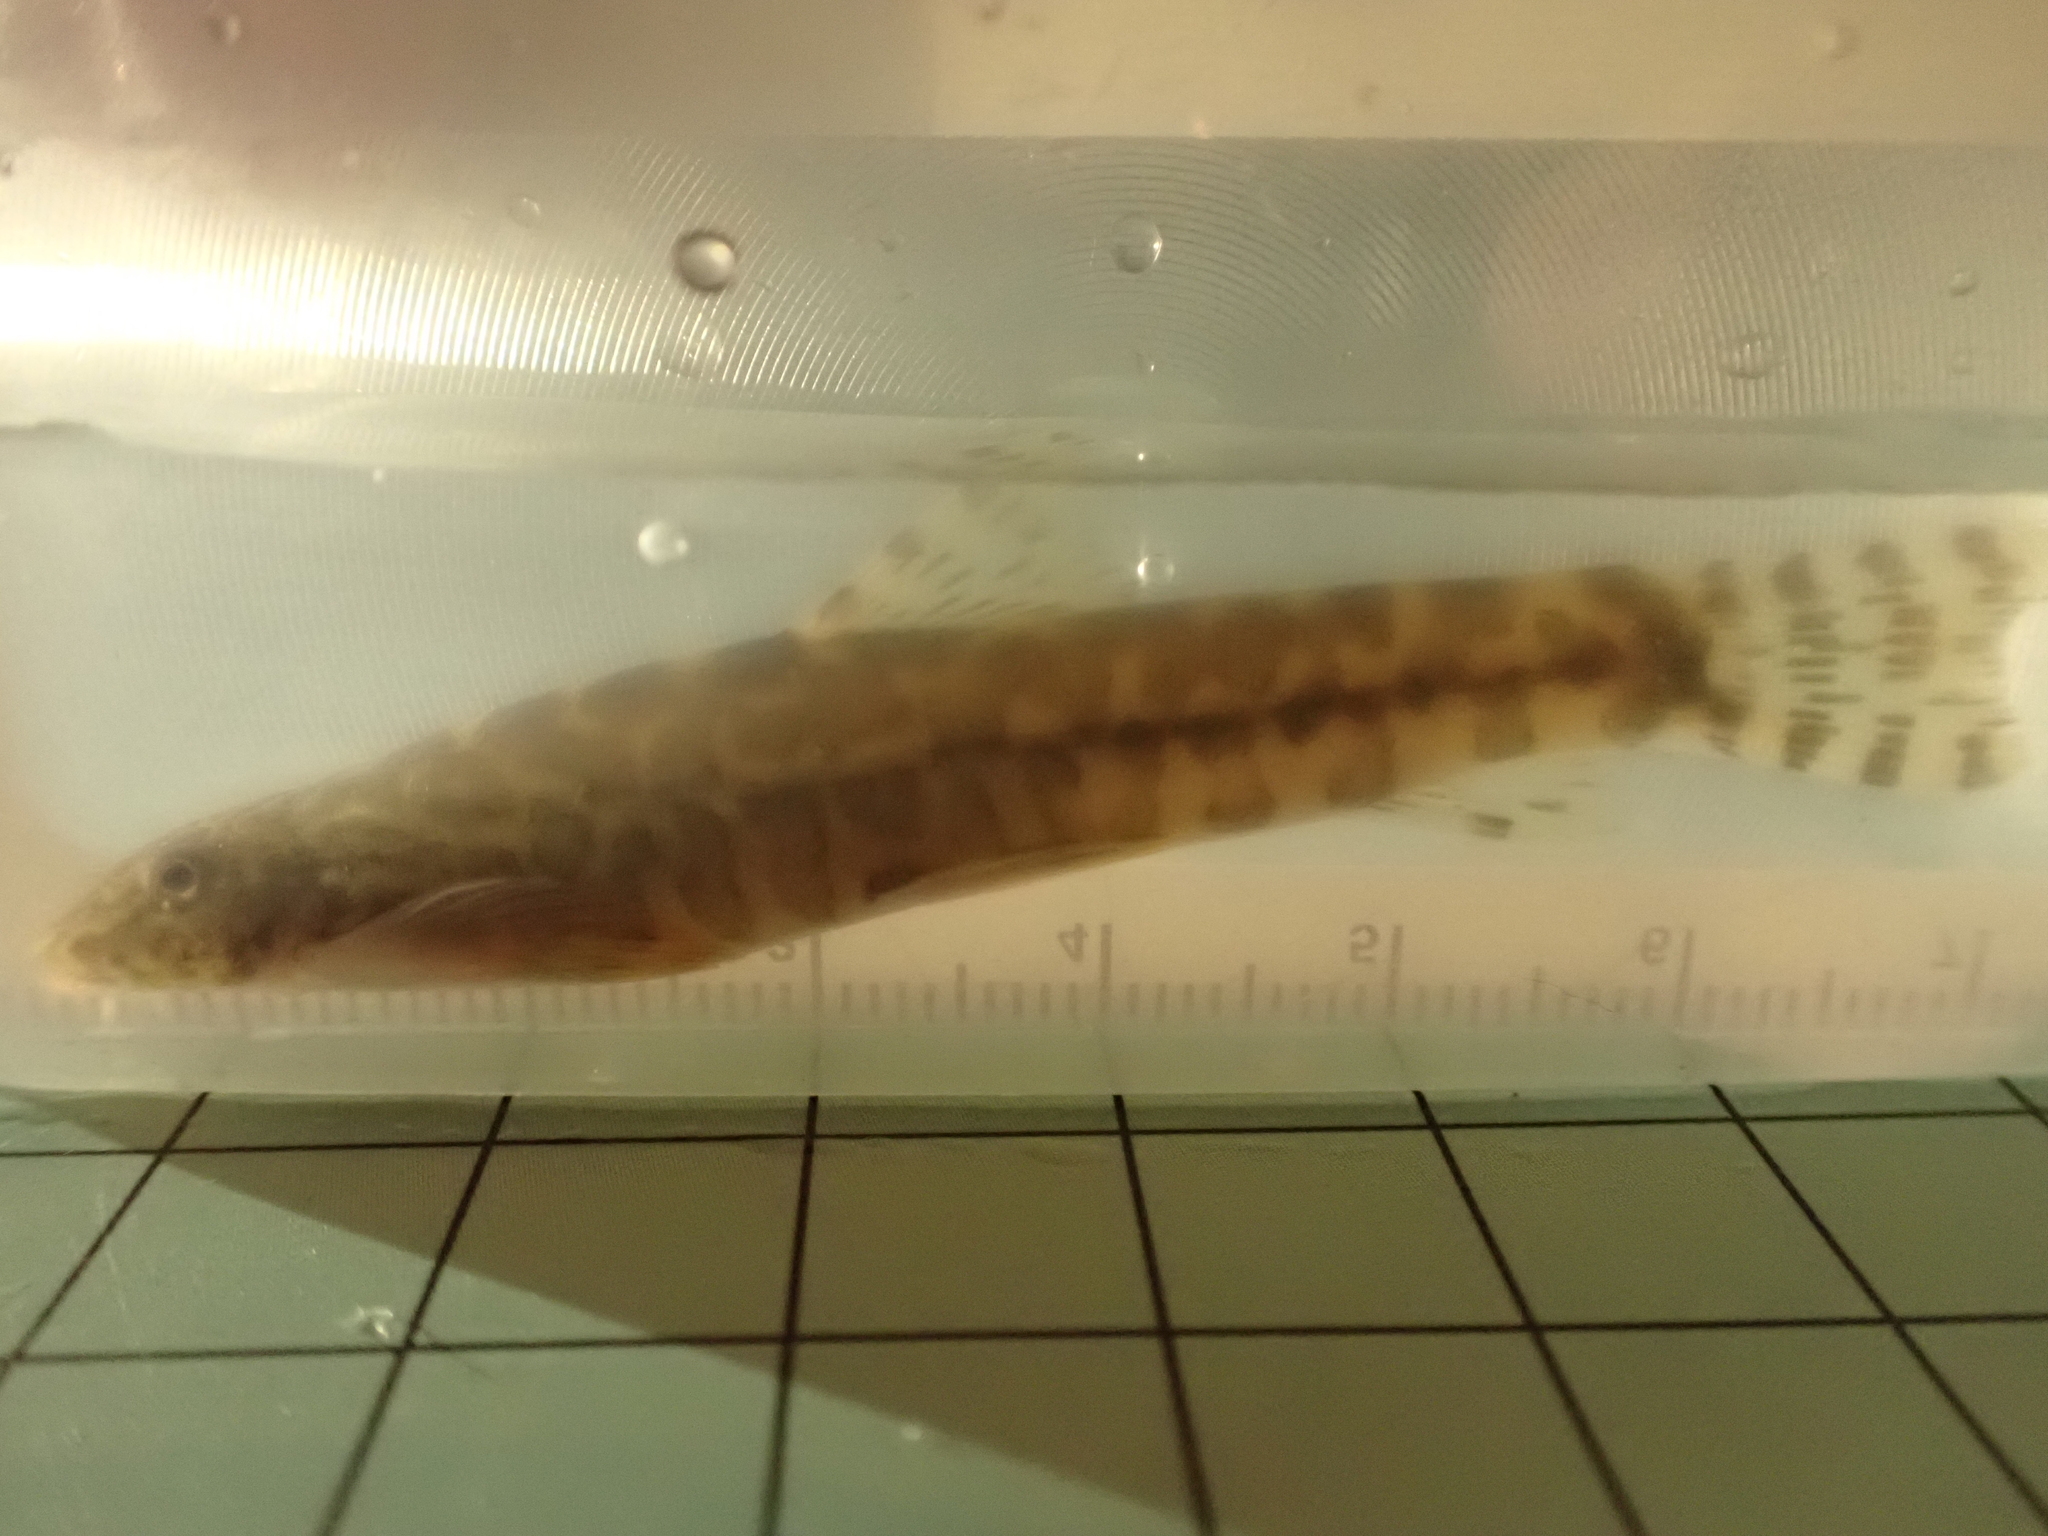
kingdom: Animalia
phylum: Chordata
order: Cypriniformes
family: Balitoridae
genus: Formosania
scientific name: Formosania lacustre
